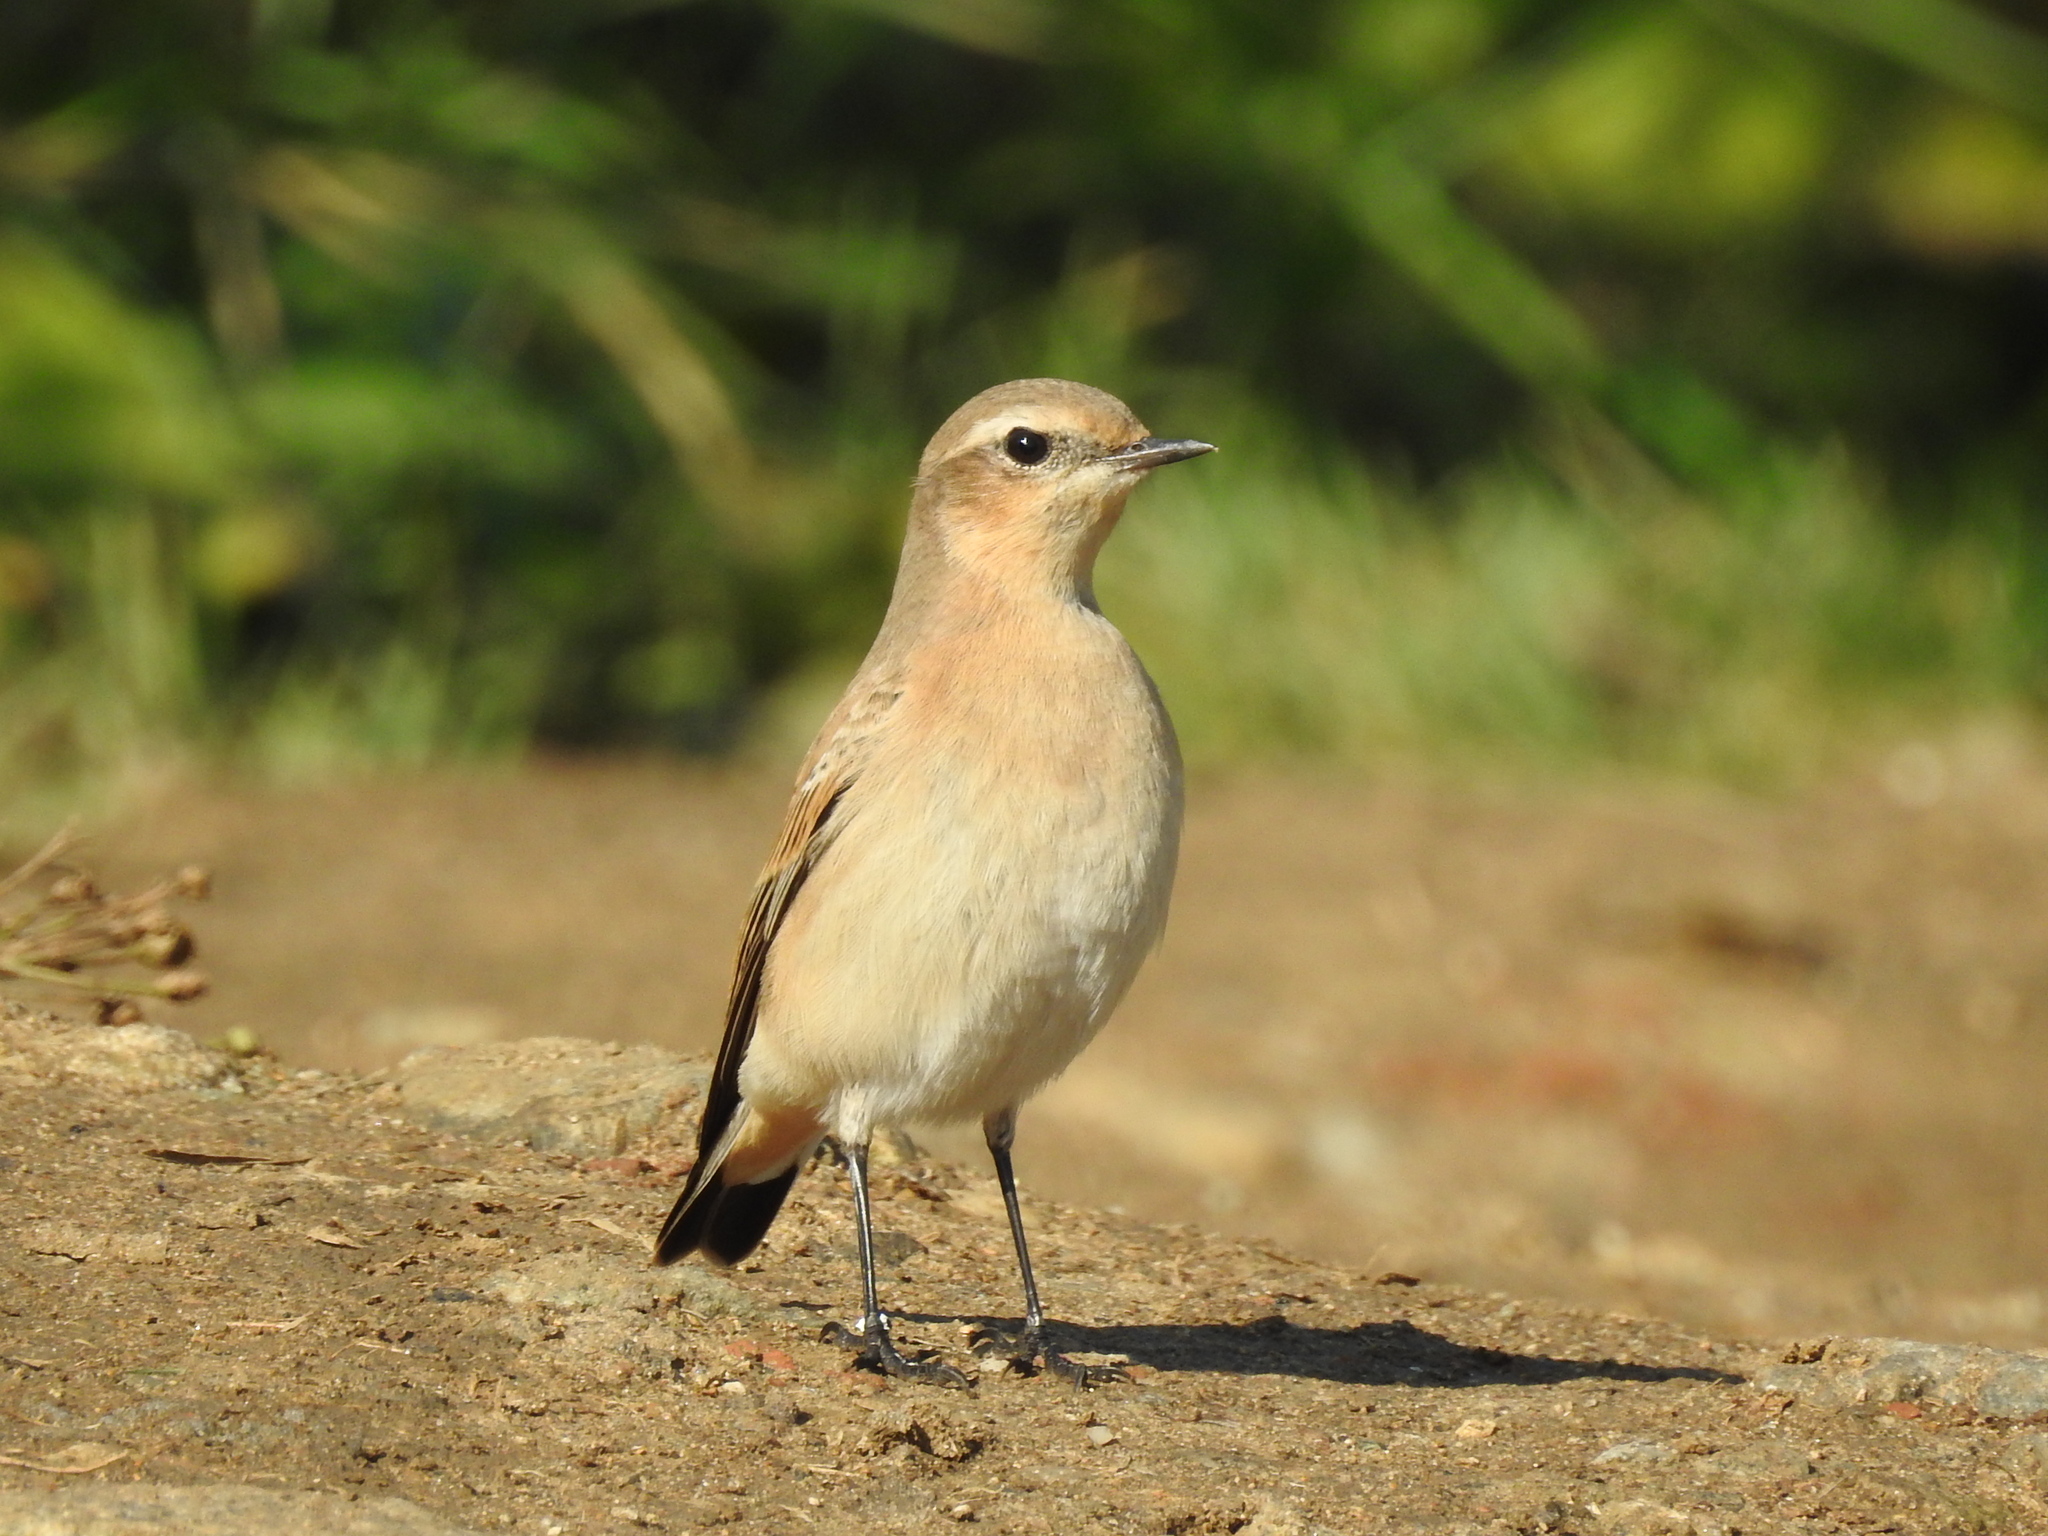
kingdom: Animalia
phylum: Chordata
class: Aves
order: Passeriformes
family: Muscicapidae
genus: Oenanthe
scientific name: Oenanthe oenanthe
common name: Northern wheatear
